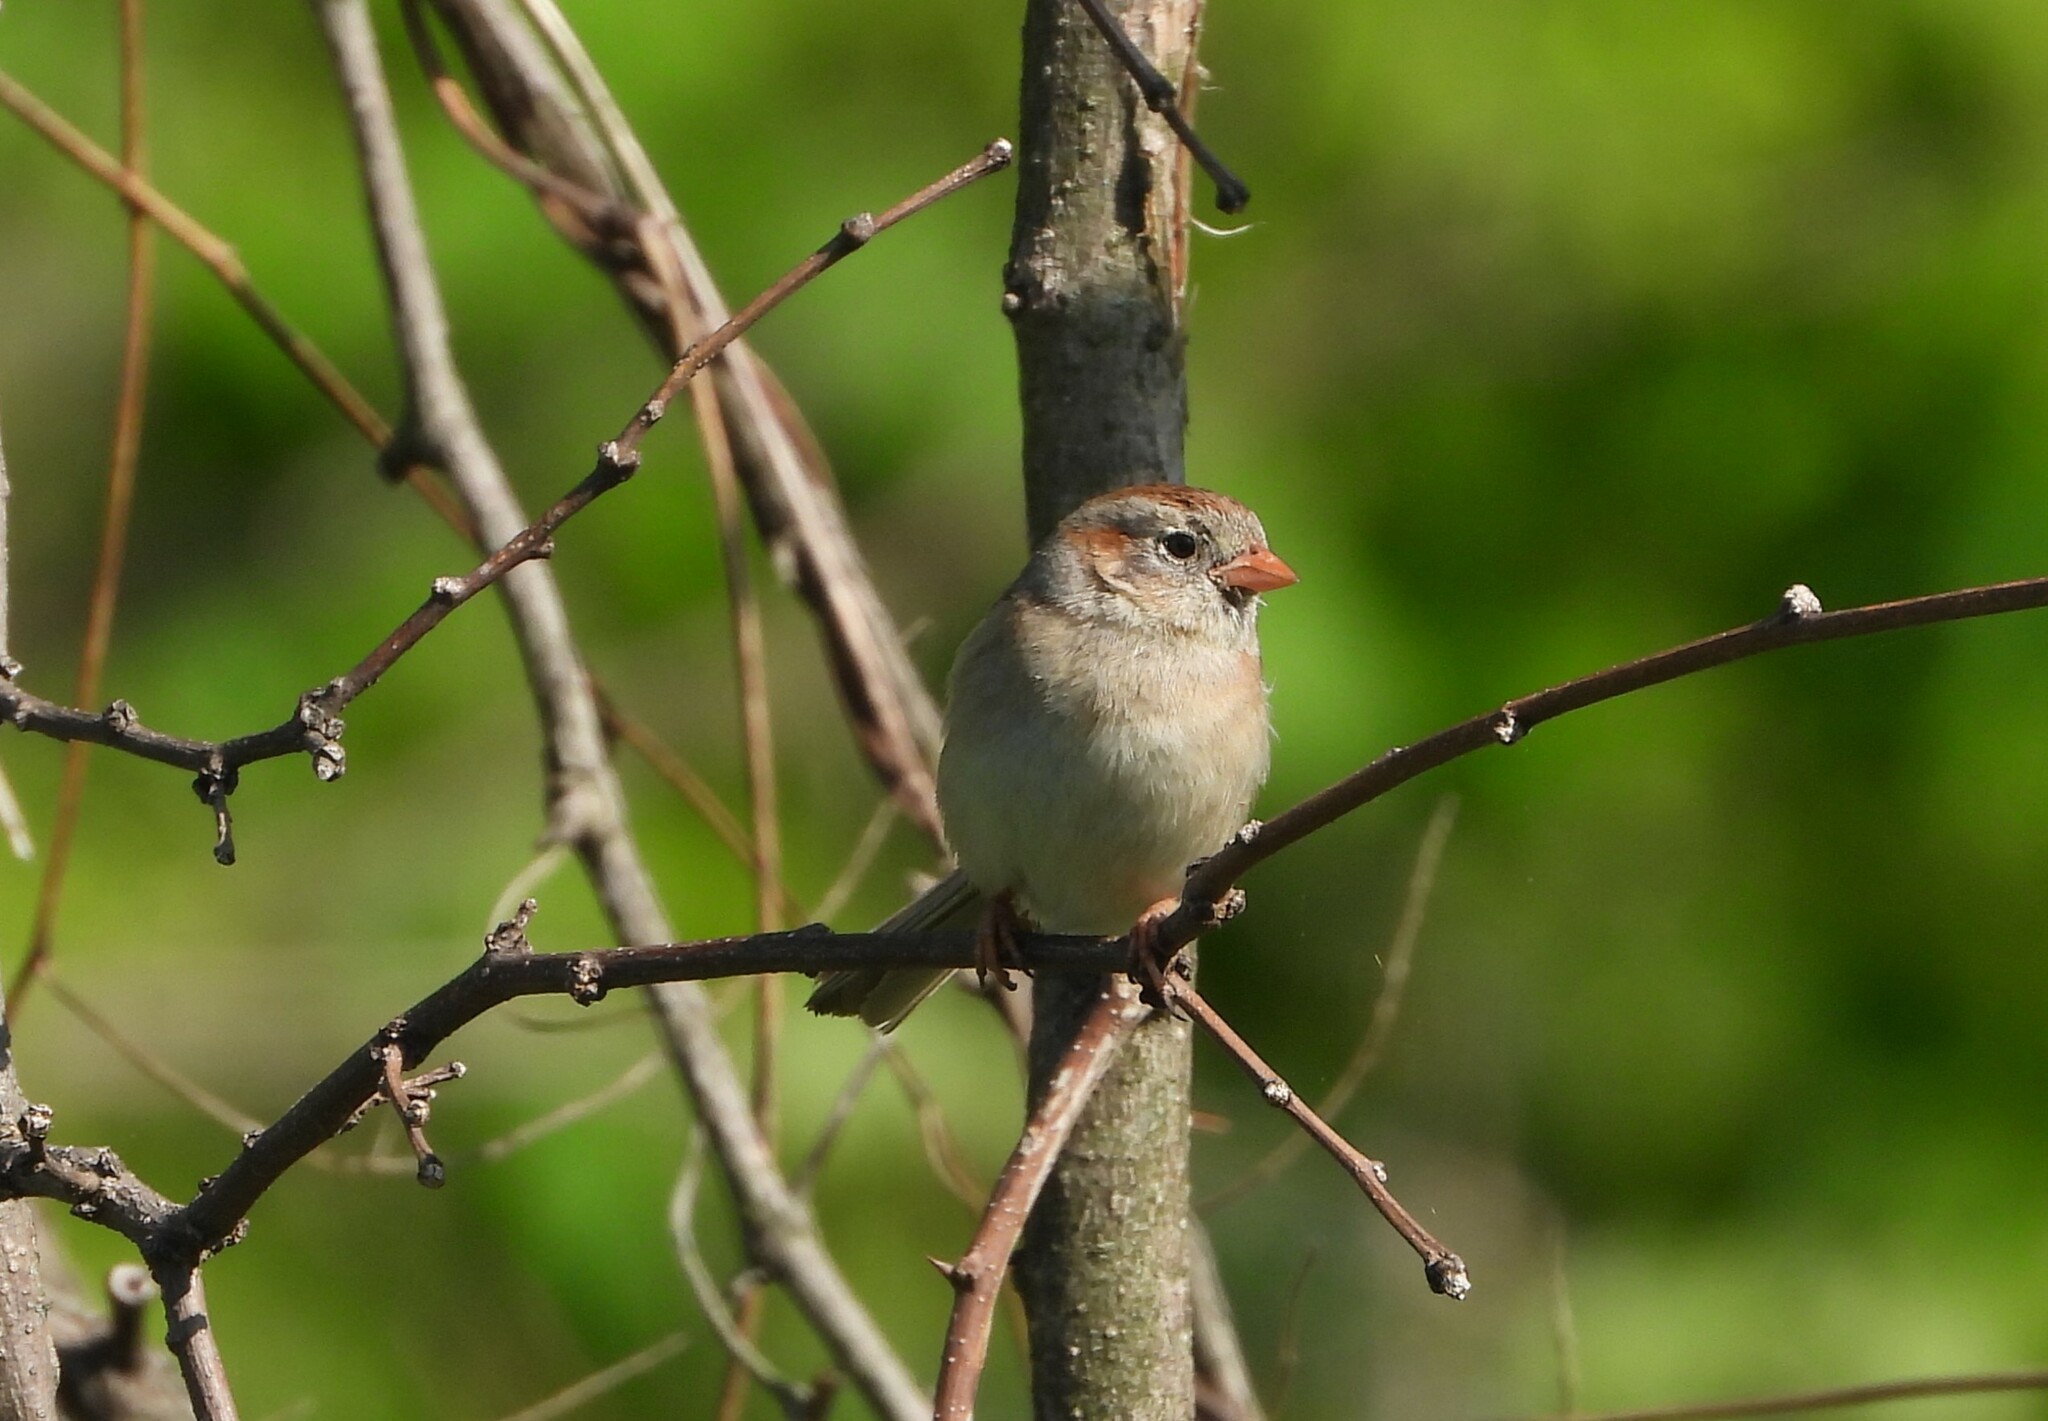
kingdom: Animalia
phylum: Chordata
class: Aves
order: Passeriformes
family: Passerellidae
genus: Spizella
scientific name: Spizella pusilla
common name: Field sparrow
